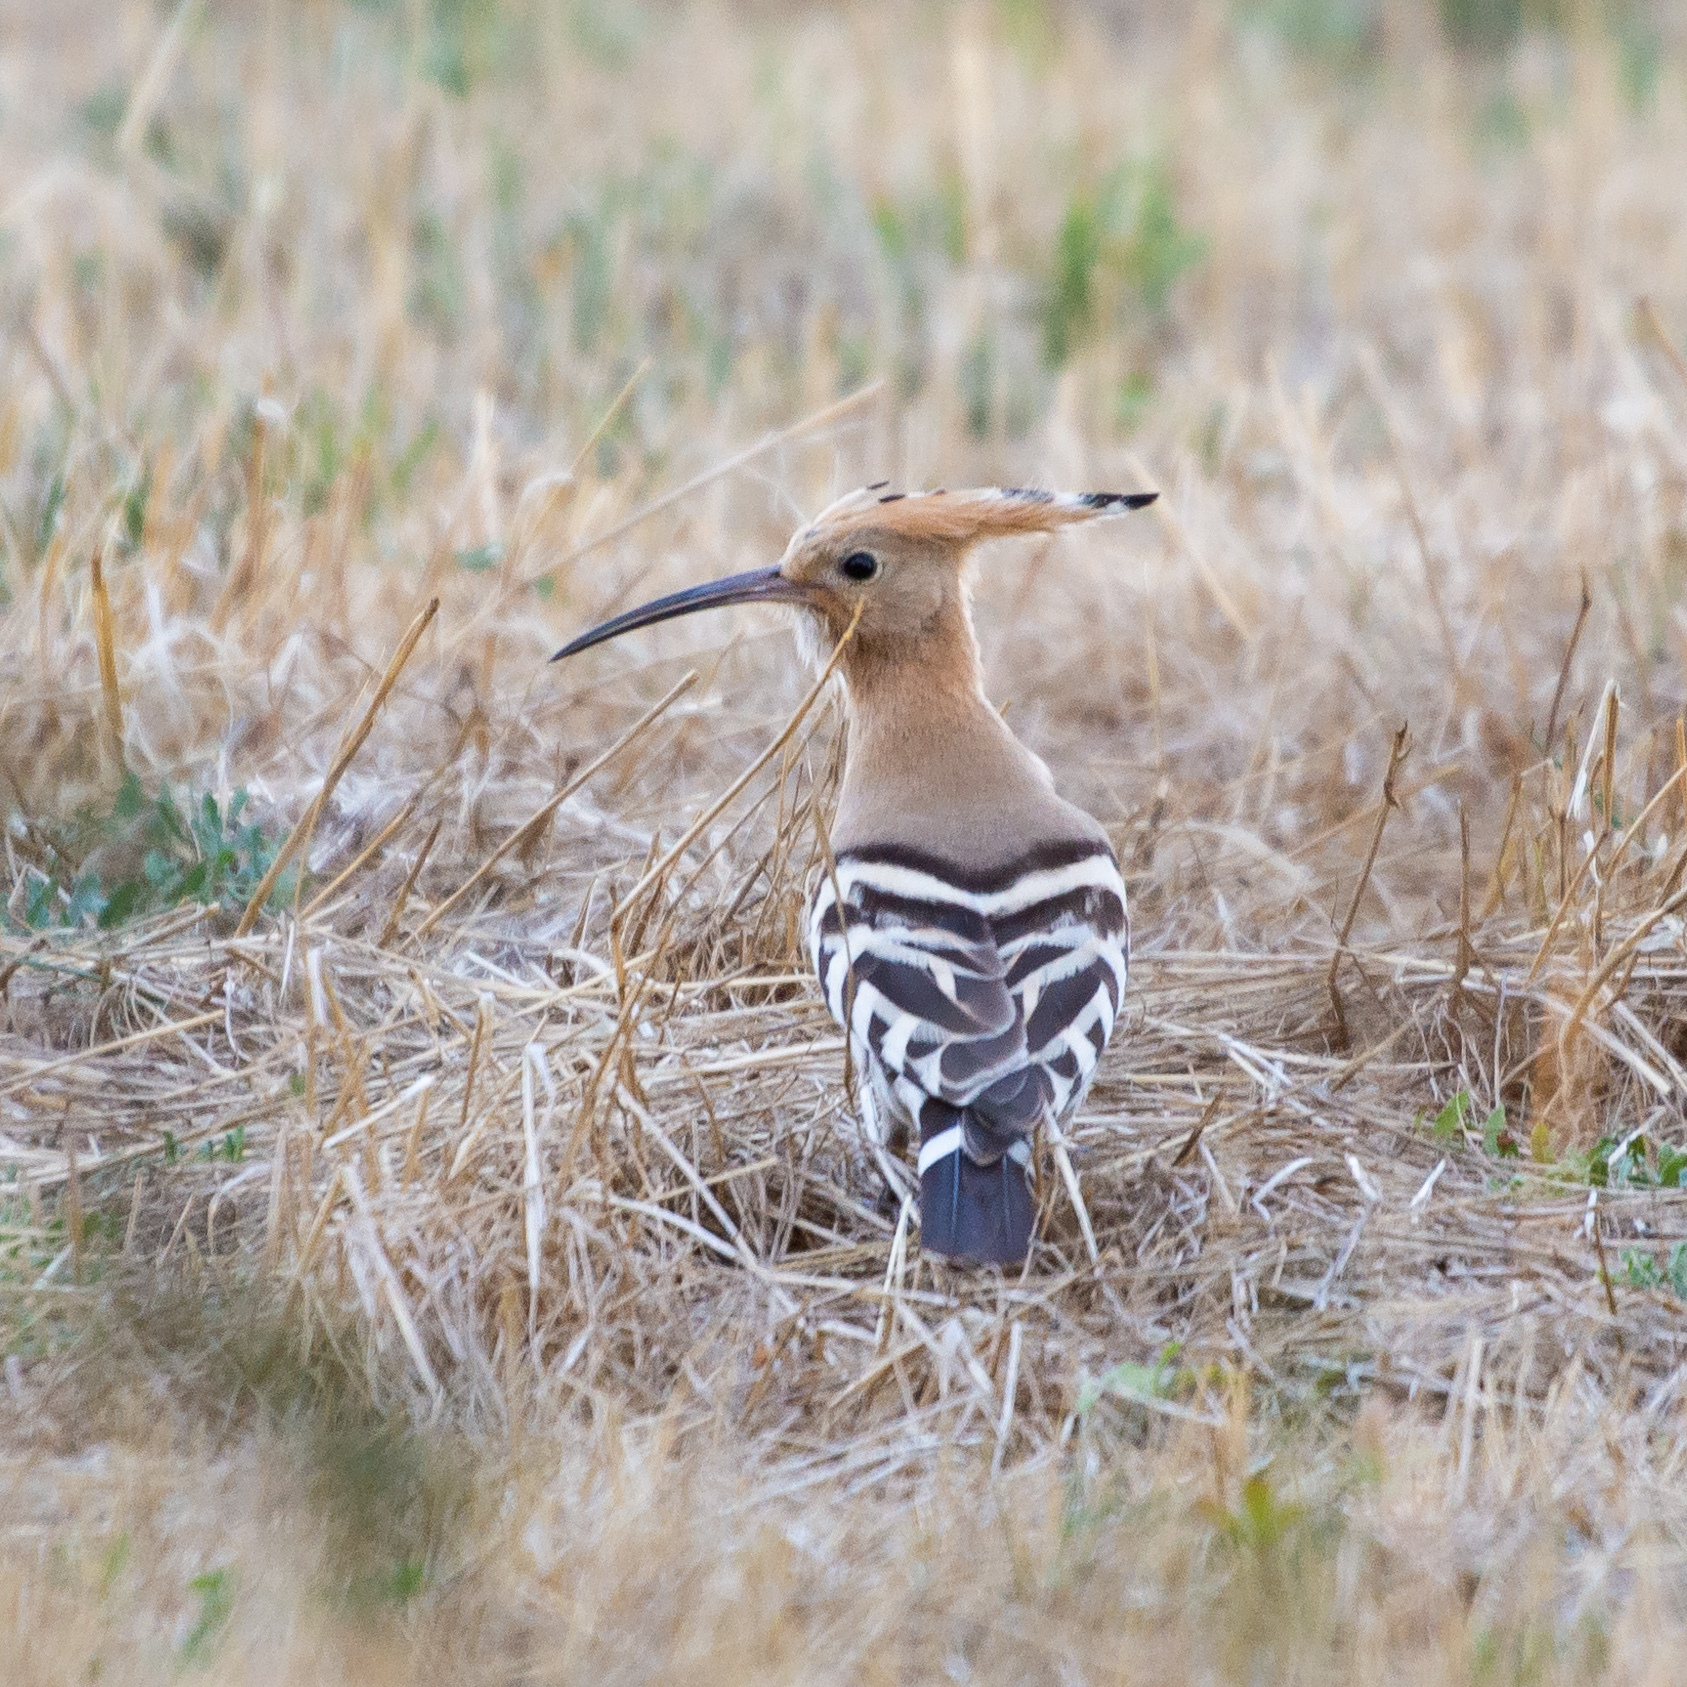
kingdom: Animalia
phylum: Chordata
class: Aves
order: Bucerotiformes
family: Upupidae
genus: Upupa
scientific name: Upupa epops
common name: Eurasian hoopoe
